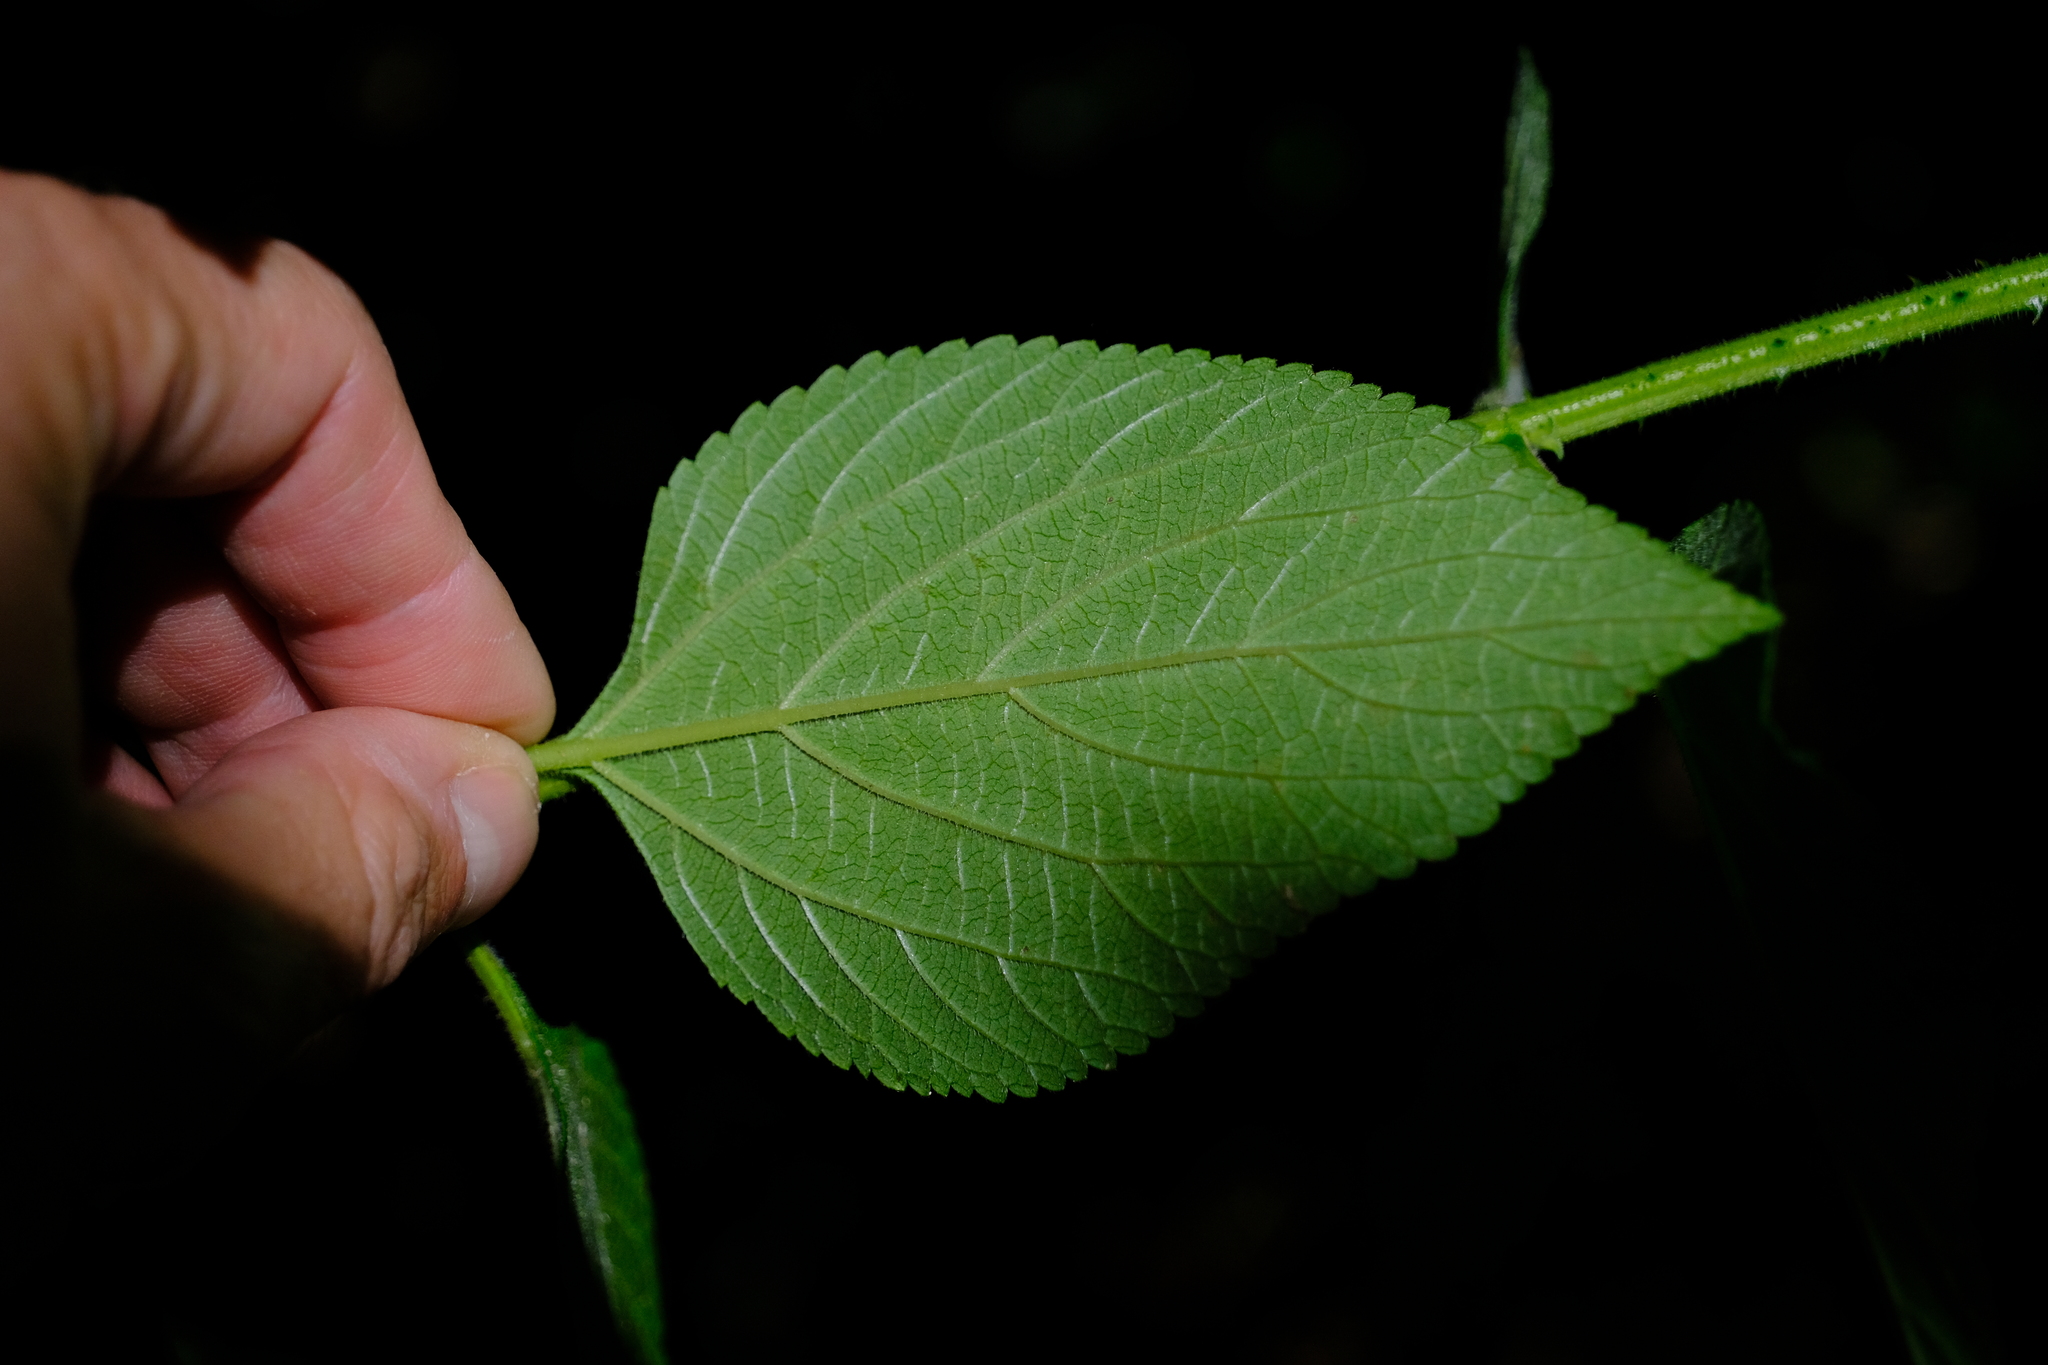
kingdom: Plantae
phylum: Tracheophyta
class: Magnoliopsida
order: Lamiales
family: Verbenaceae
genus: Lantana
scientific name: Lantana camara
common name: Lantana
